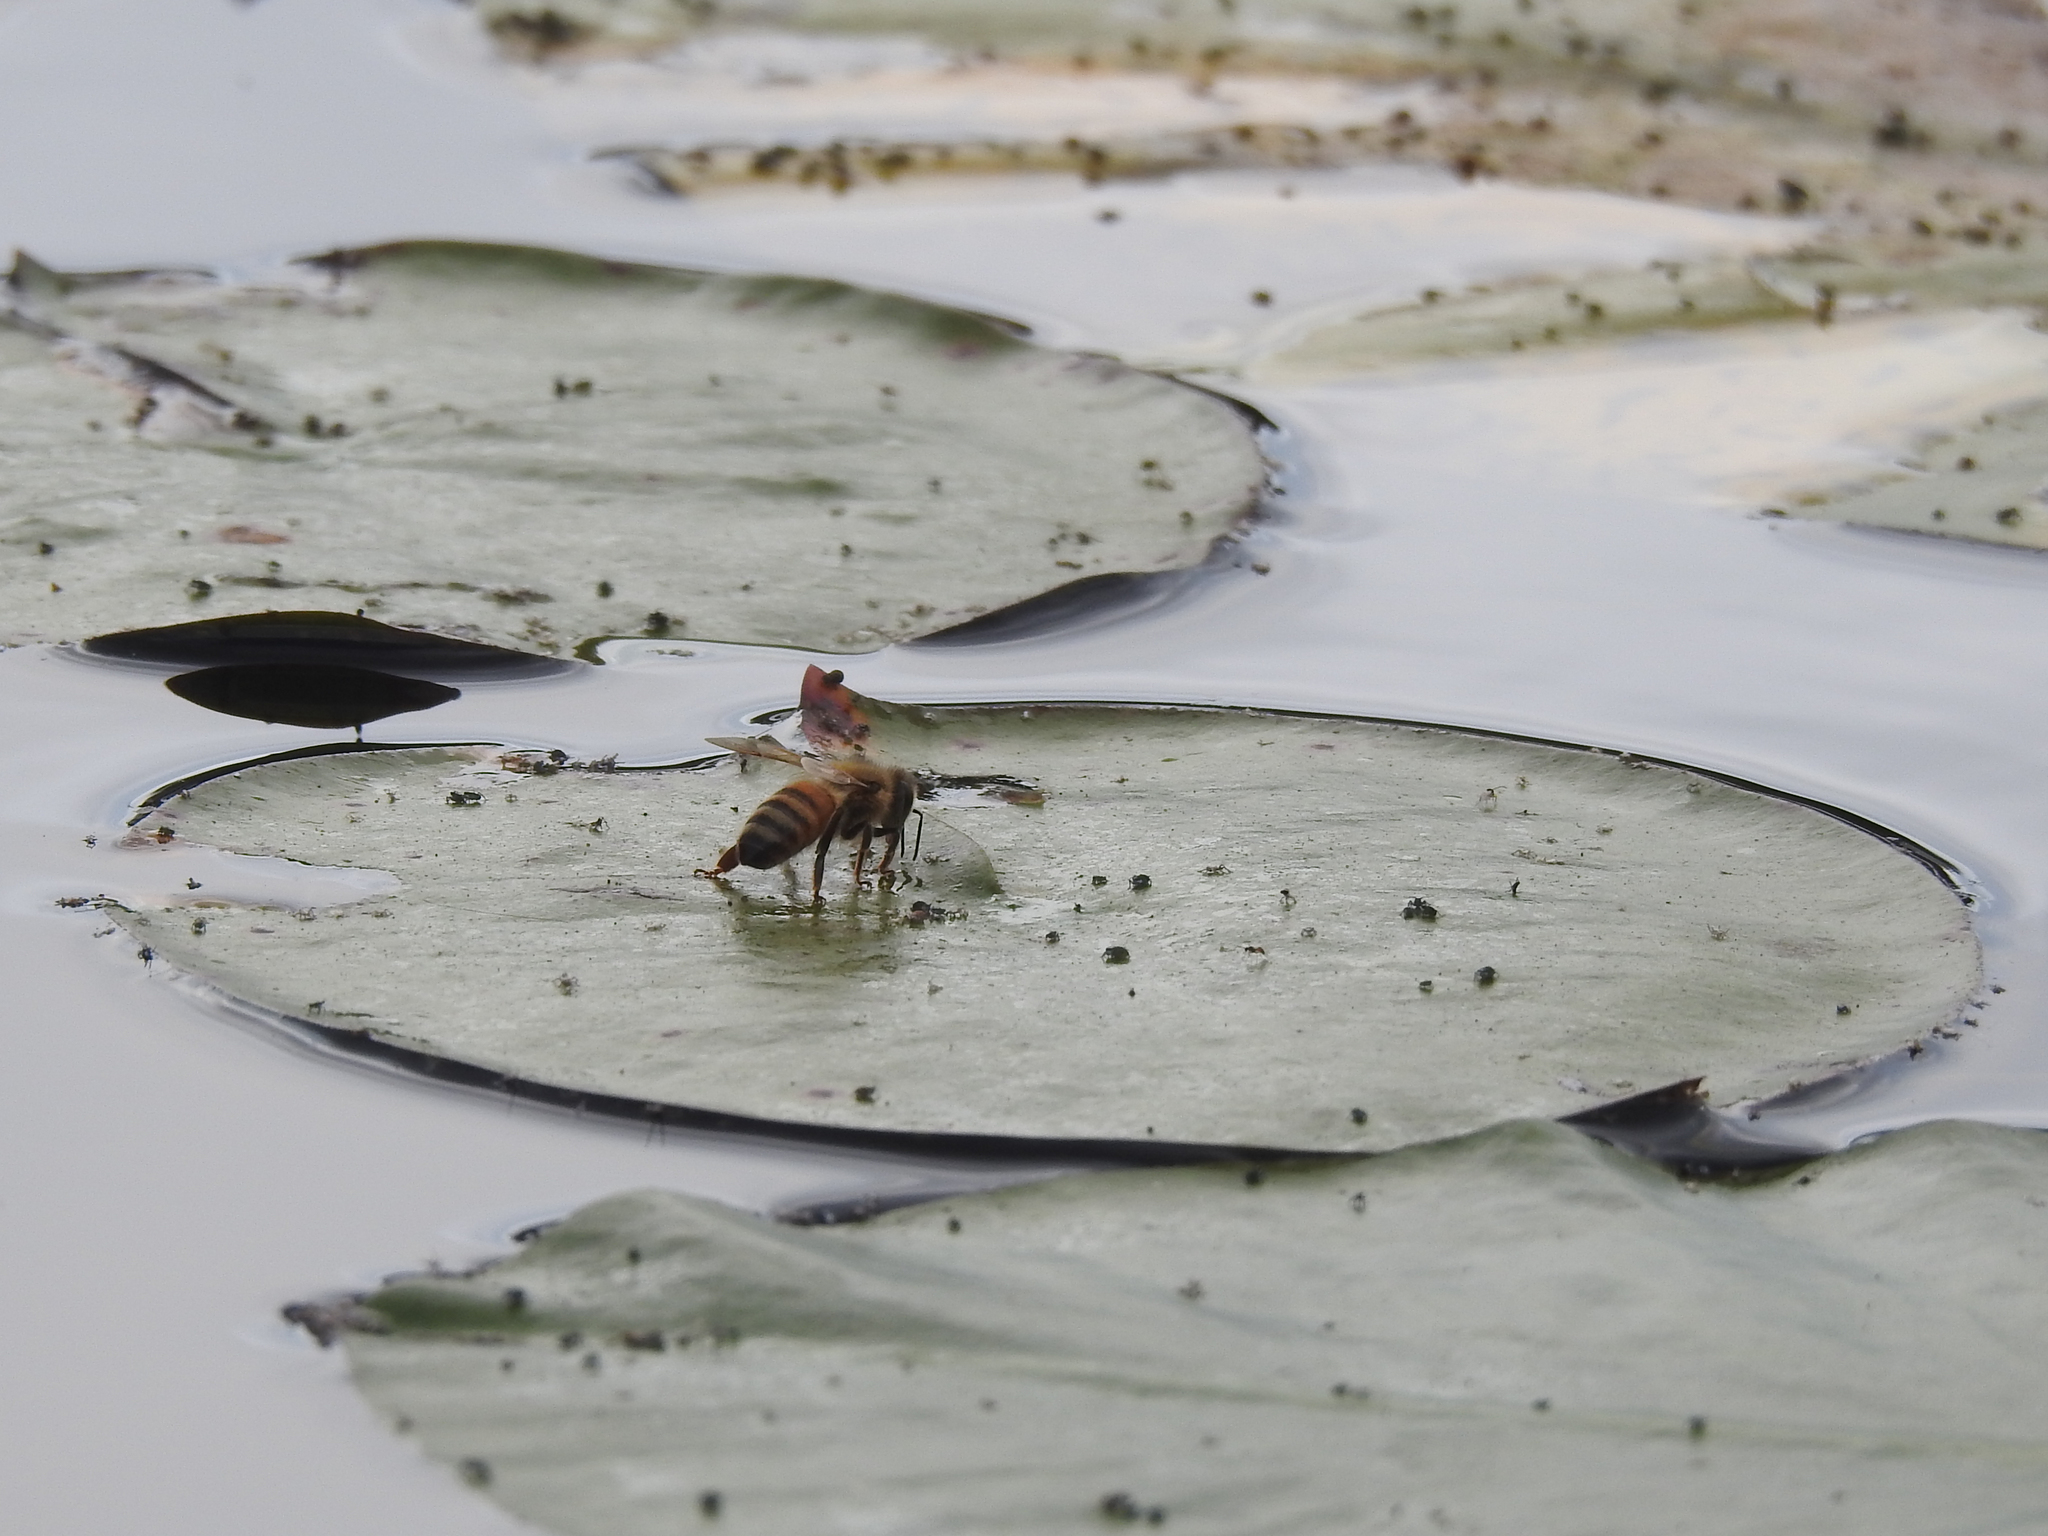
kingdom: Animalia
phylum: Arthropoda
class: Insecta
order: Hymenoptera
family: Apidae
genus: Apis
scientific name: Apis mellifera
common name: Honey bee
